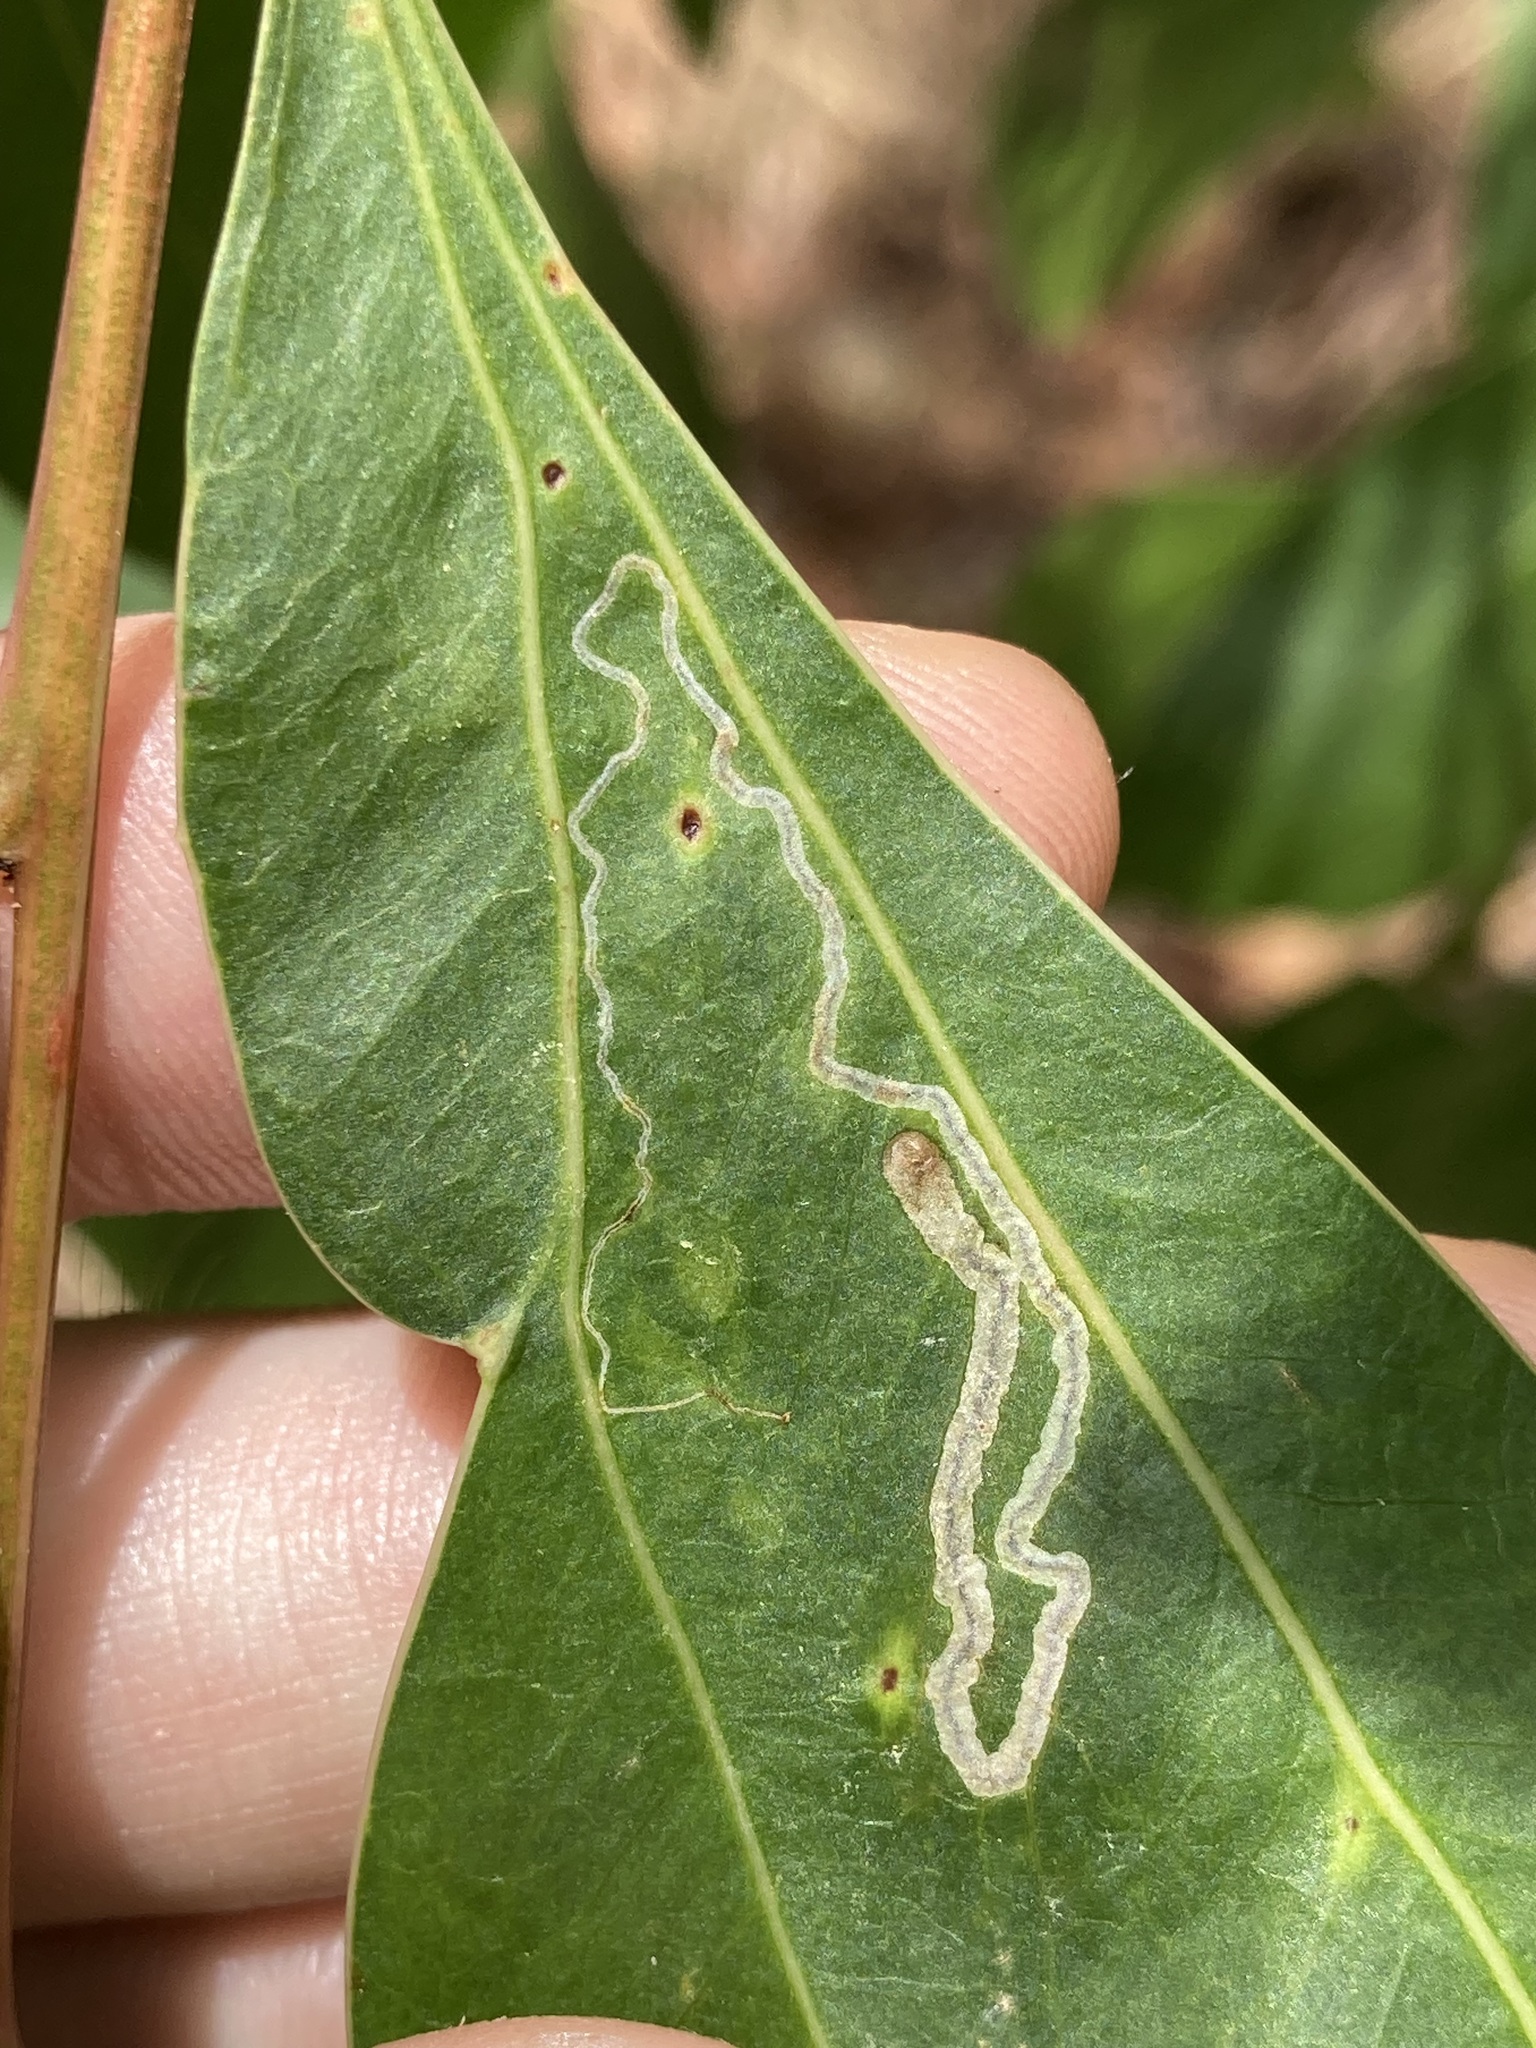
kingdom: Plantae
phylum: Tracheophyta
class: Magnoliopsida
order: Fabales
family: Fabaceae
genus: Acacia
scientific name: Acacia binervata
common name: Two-veined hickory
